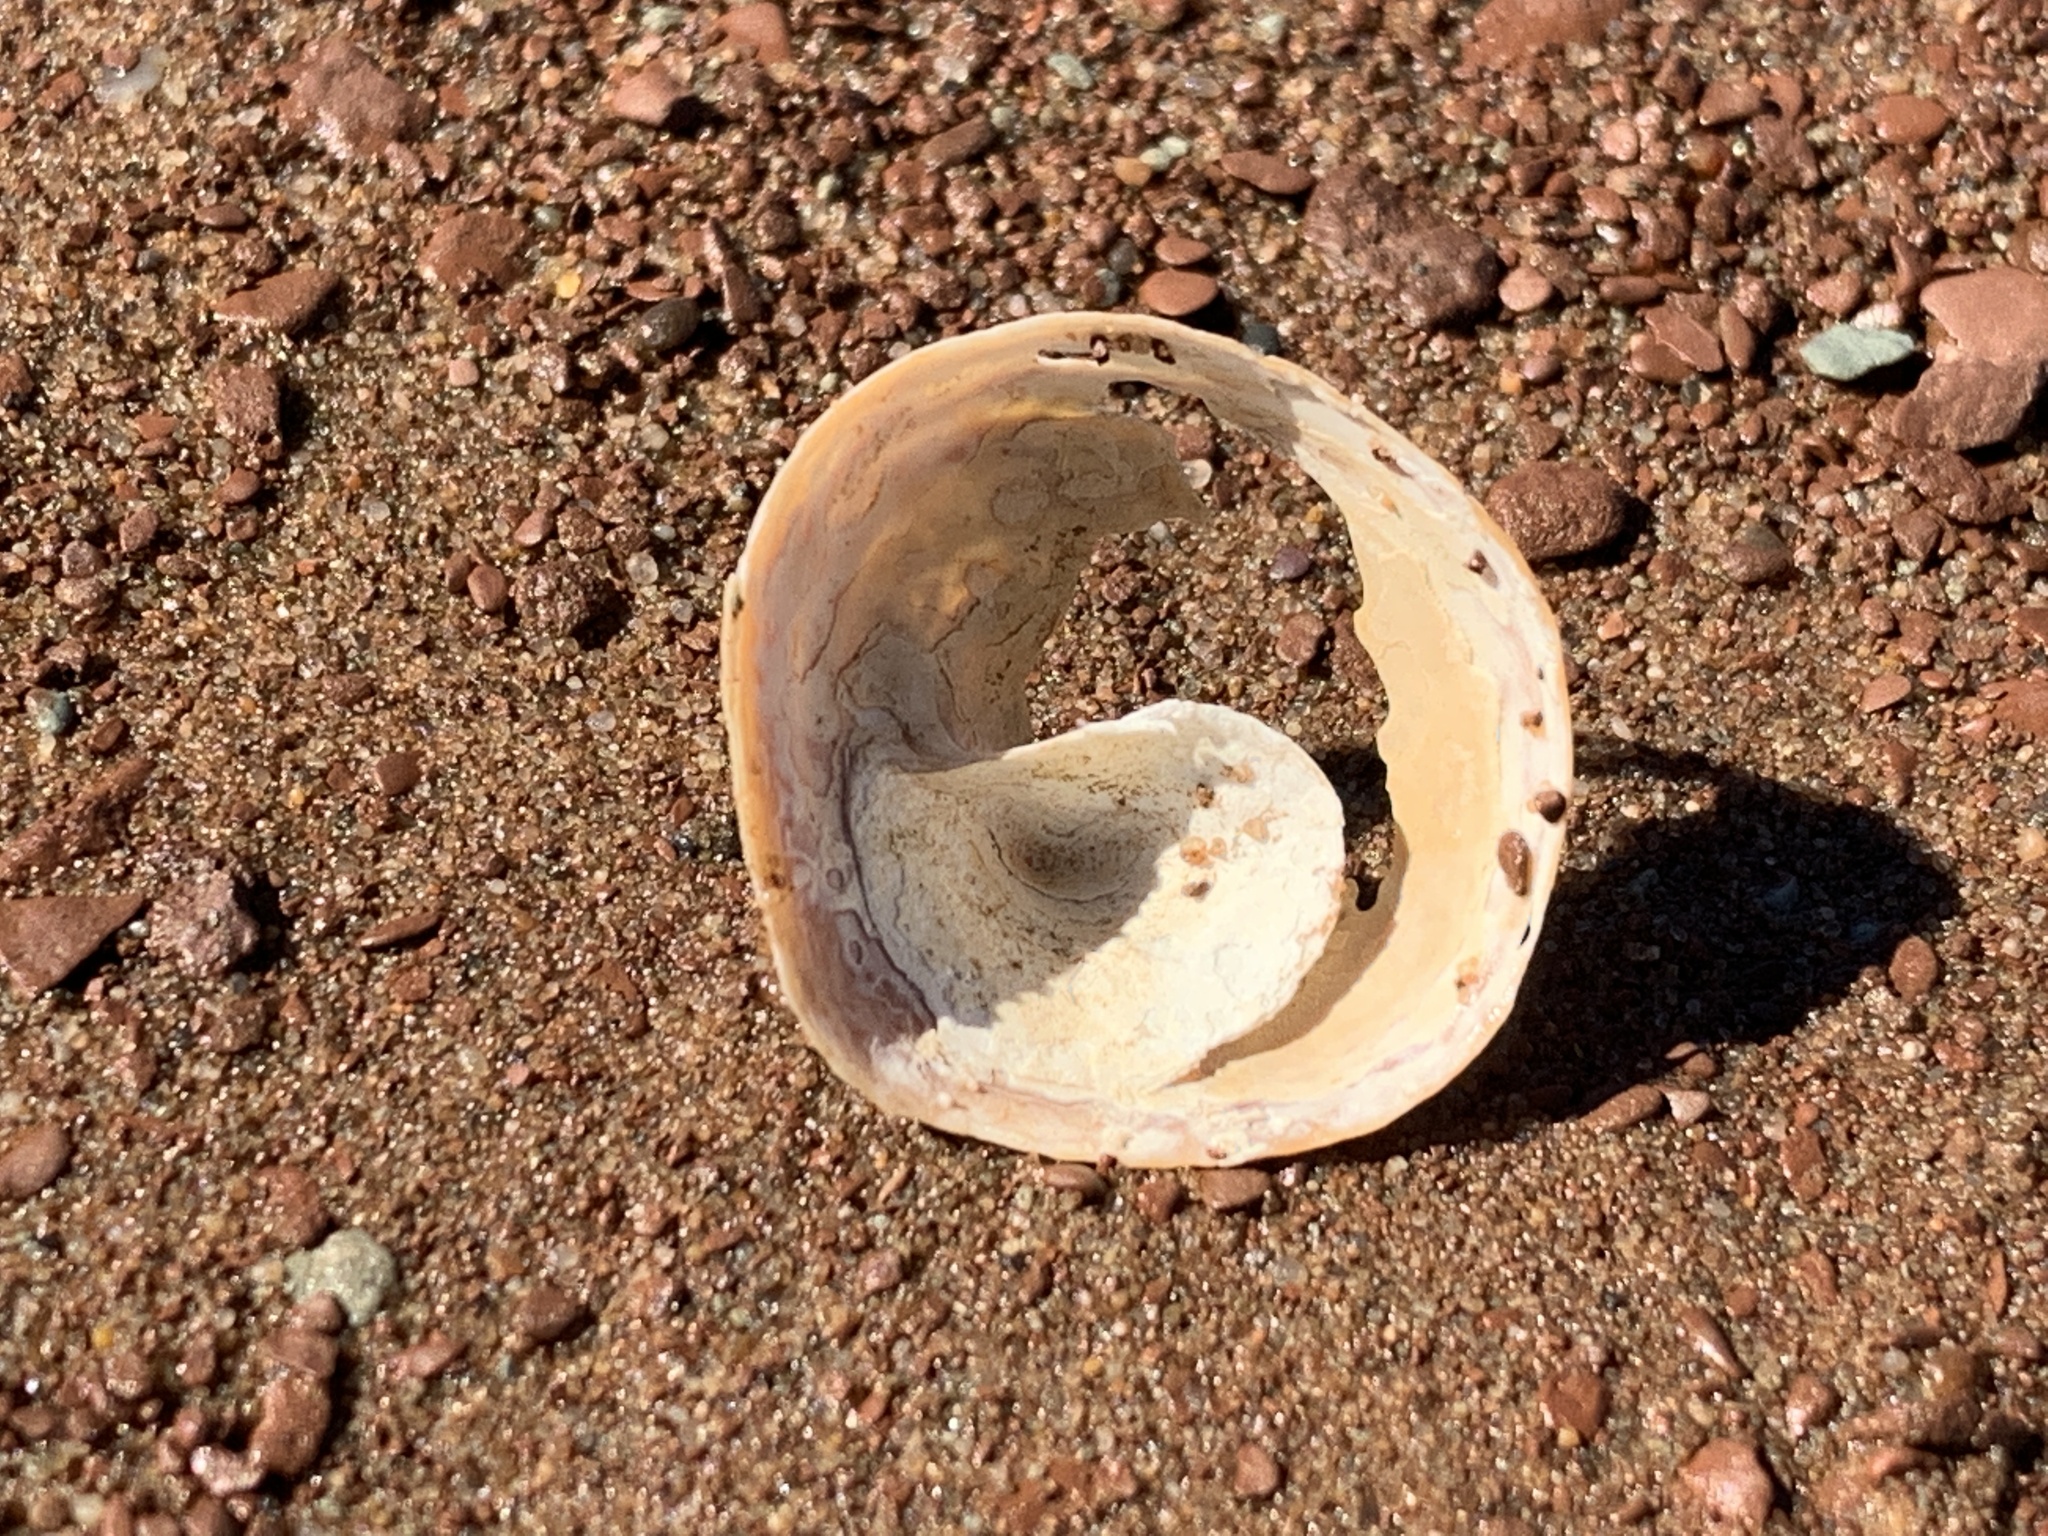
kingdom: Animalia
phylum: Mollusca
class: Gastropoda
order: Littorinimorpha
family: Calyptraeidae
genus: Crucibulum
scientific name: Crucibulum striatum
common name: Striate cup-and -saucer
